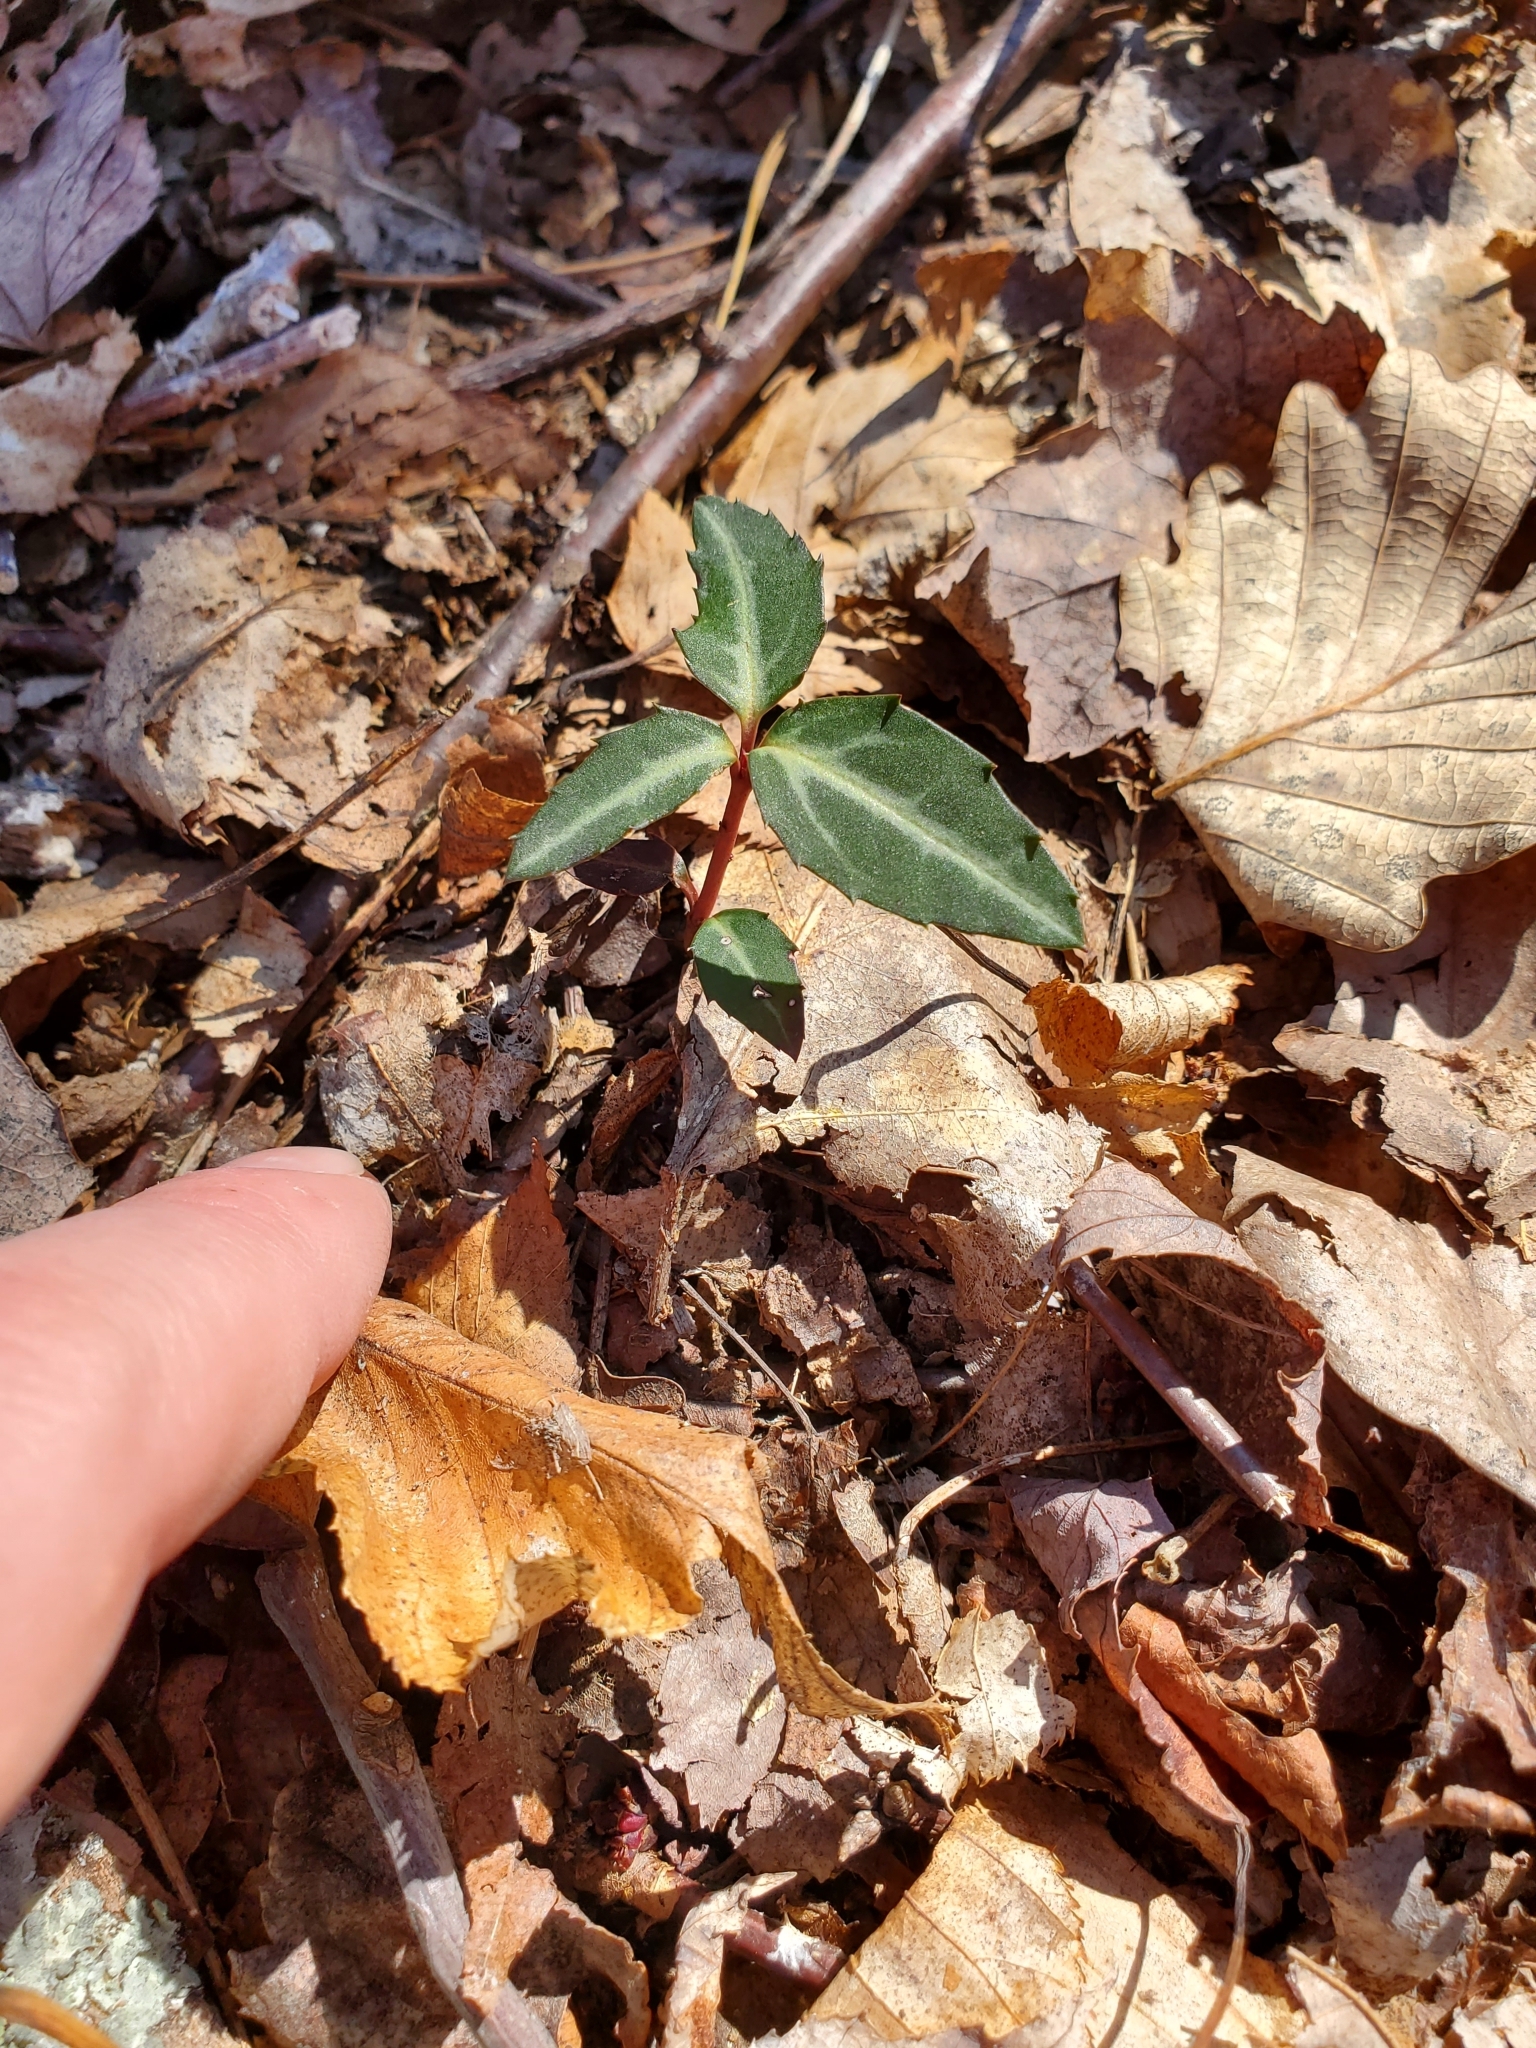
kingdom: Plantae
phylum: Tracheophyta
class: Magnoliopsida
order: Ericales
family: Ericaceae
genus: Chimaphila
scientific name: Chimaphila maculata
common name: Spotted pipsissewa
